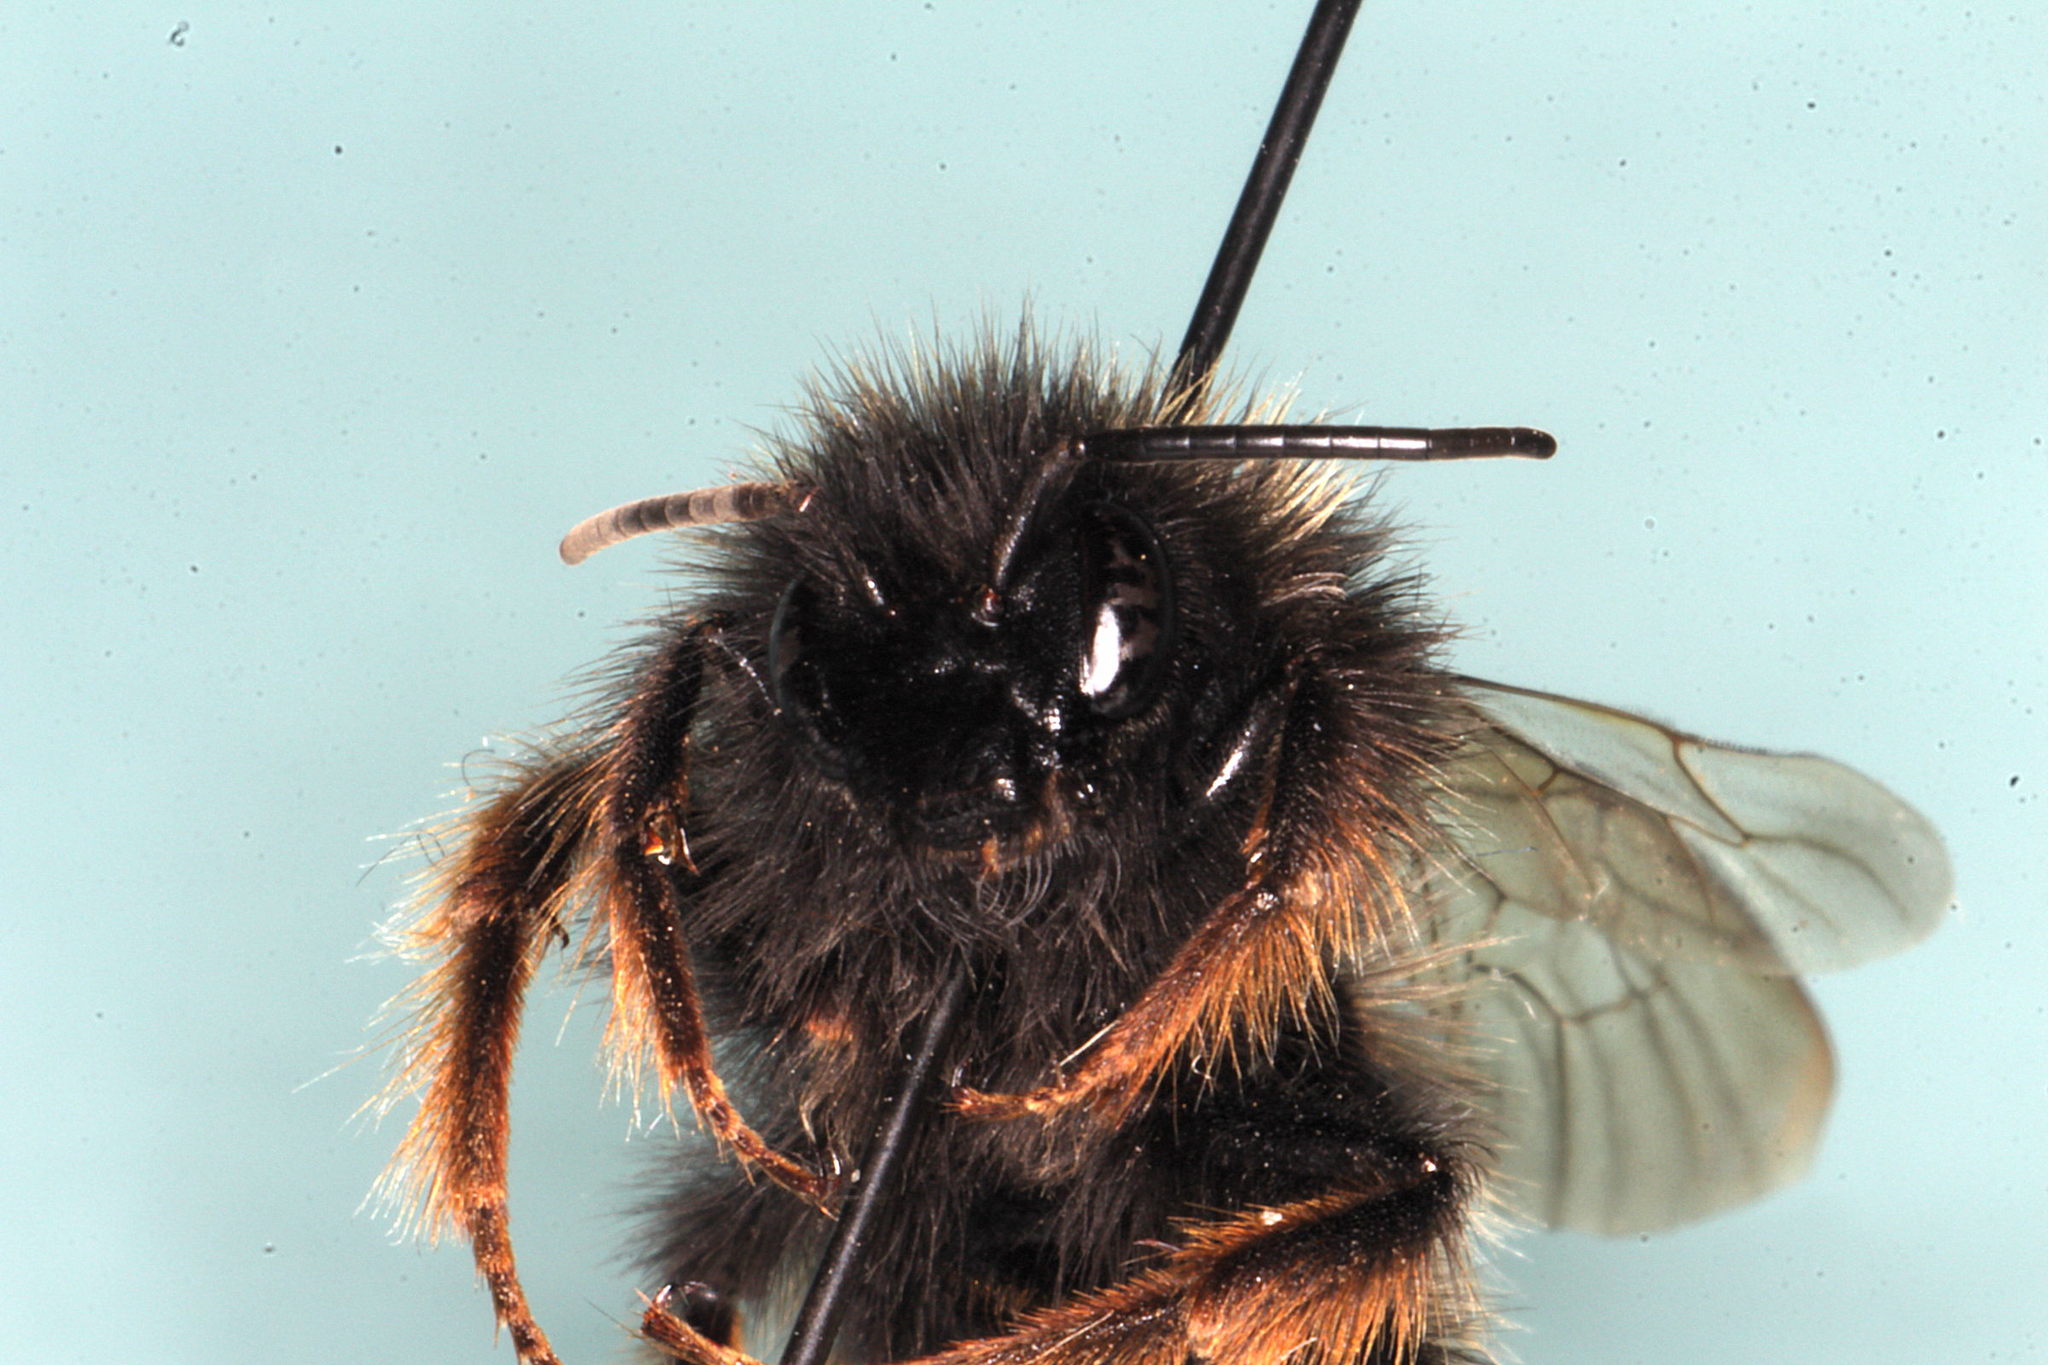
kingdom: Animalia
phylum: Arthropoda
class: Insecta
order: Hymenoptera
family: Apidae
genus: Bombus
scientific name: Bombus rupestris
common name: Hill cuckoo-bee
